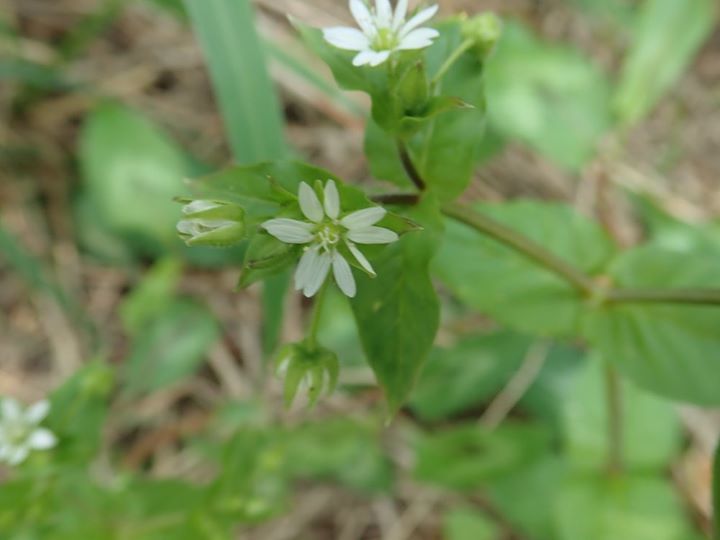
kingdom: Plantae
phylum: Tracheophyta
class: Magnoliopsida
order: Caryophyllales
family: Caryophyllaceae
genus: Stellaria
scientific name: Stellaria aquatica
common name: Water chickweed
